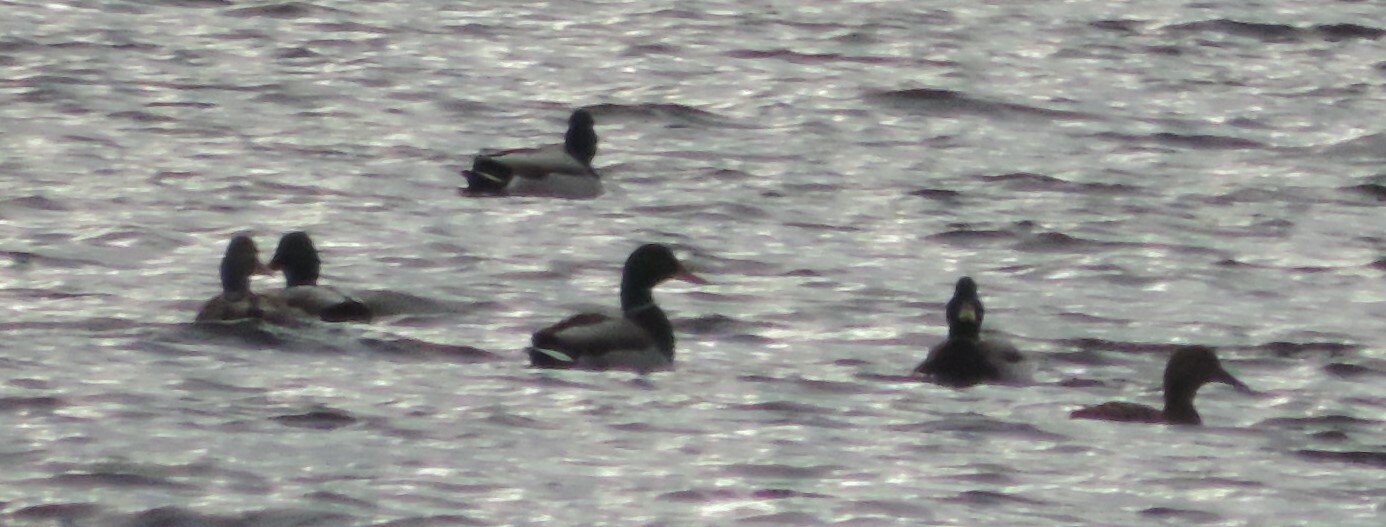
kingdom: Animalia
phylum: Chordata
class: Aves
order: Anseriformes
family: Anatidae
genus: Anas
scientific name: Anas platyrhynchos
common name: Mallard
